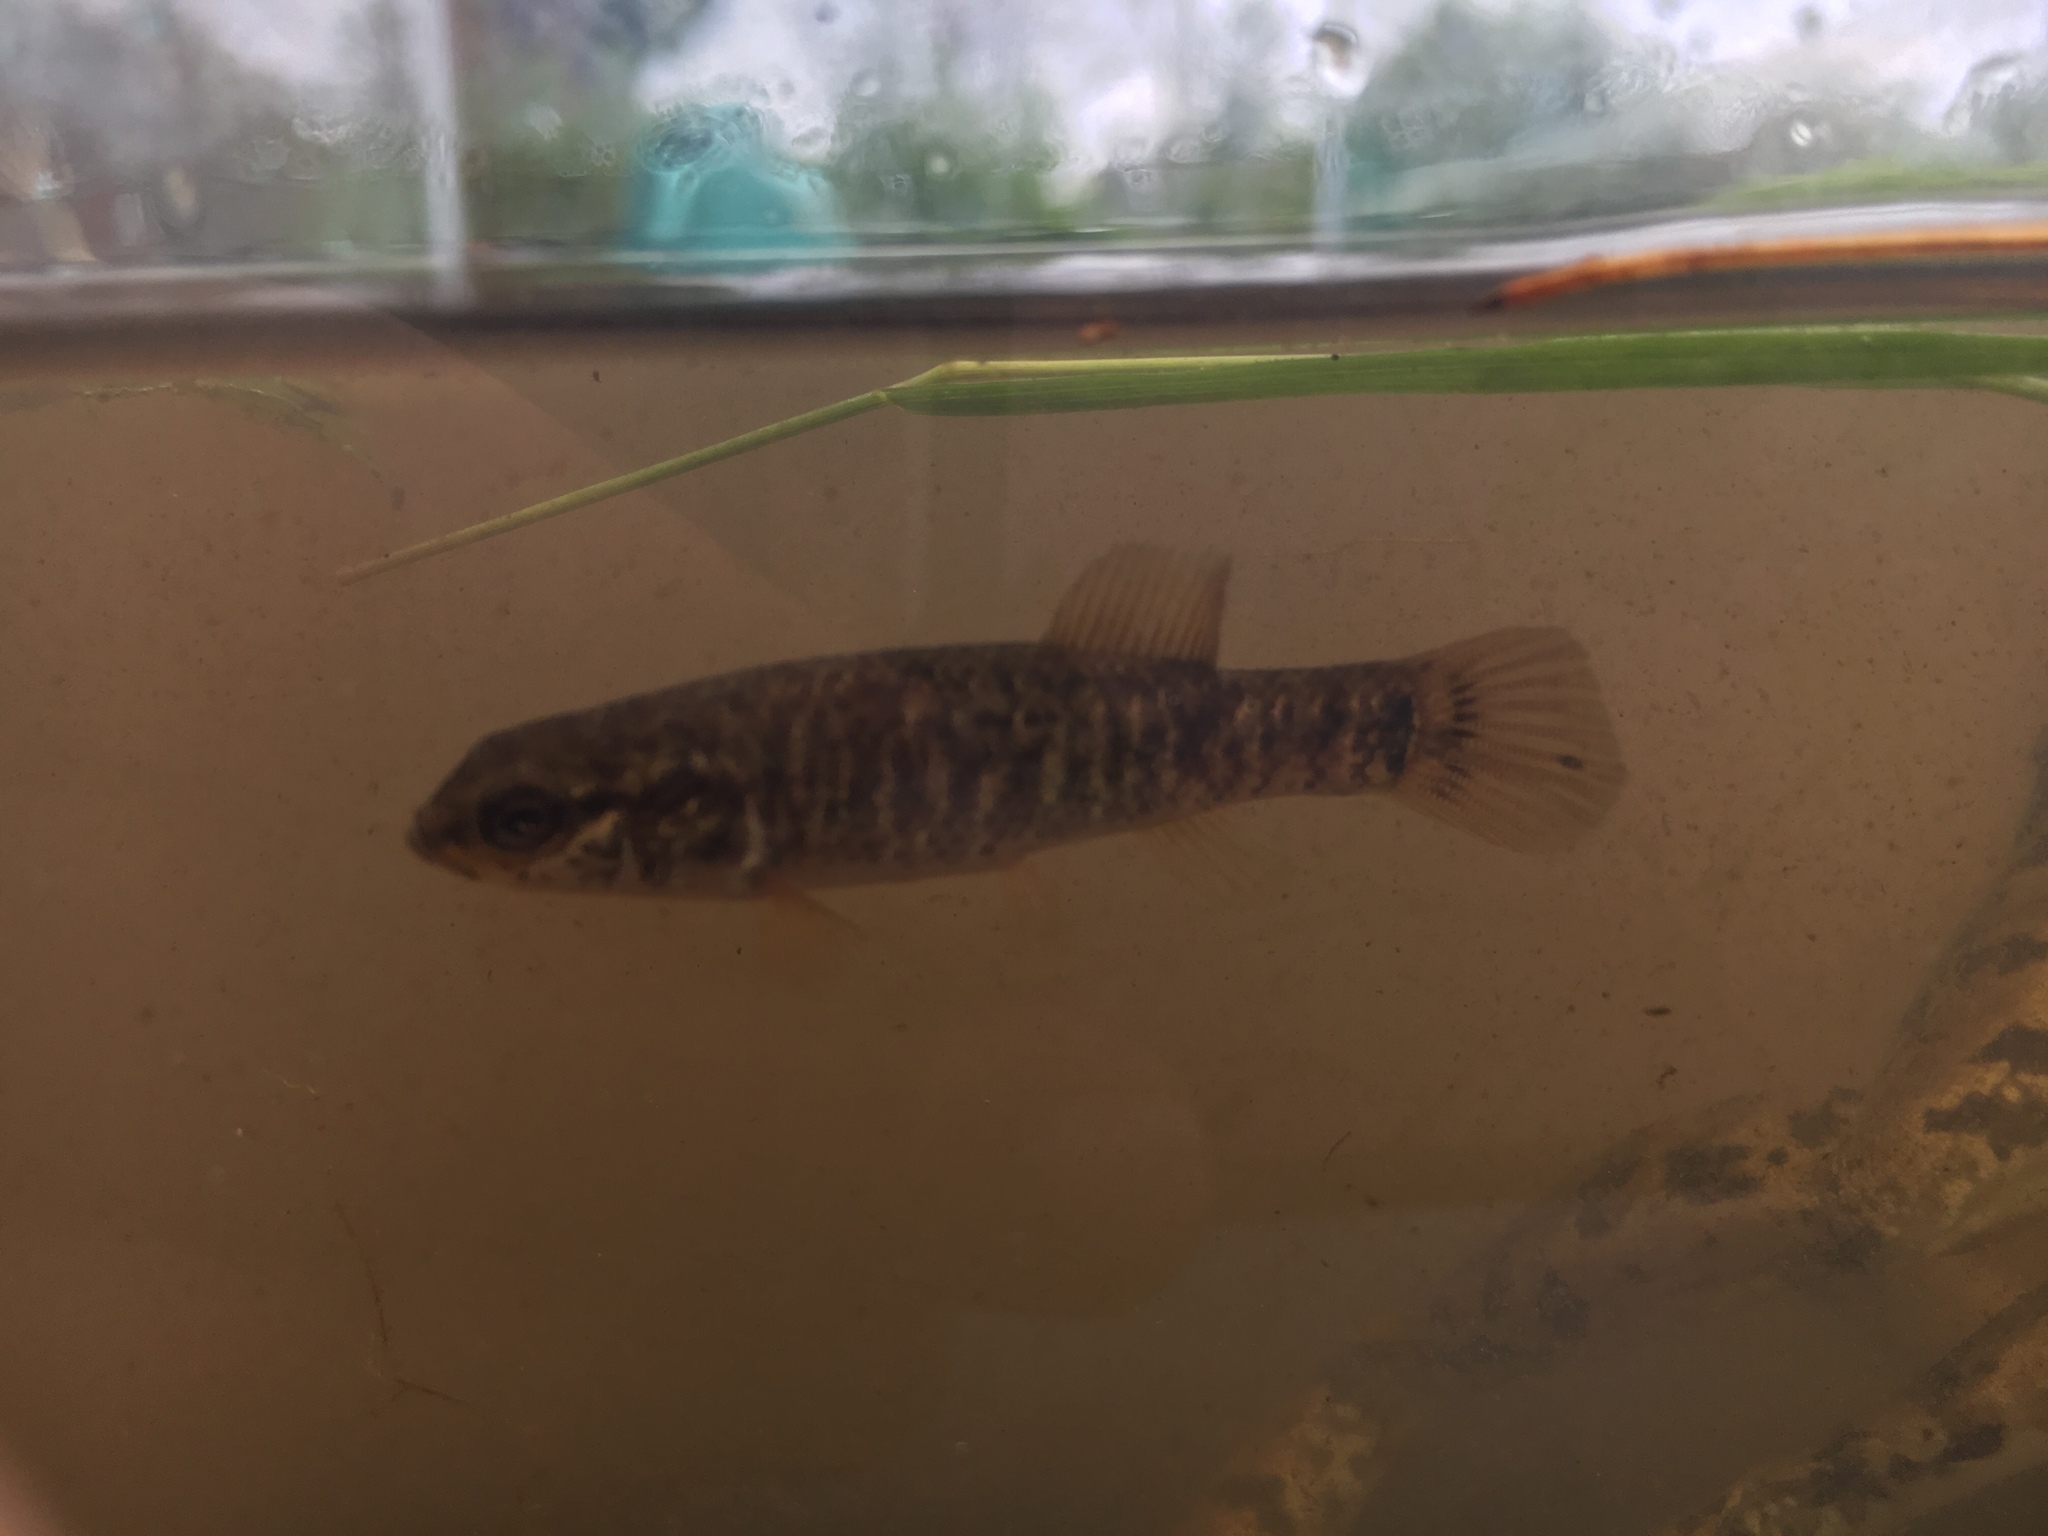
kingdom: Animalia
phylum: Chordata
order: Esociformes
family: Umbridae
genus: Umbra
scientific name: Umbra limi
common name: Central mudminnow
